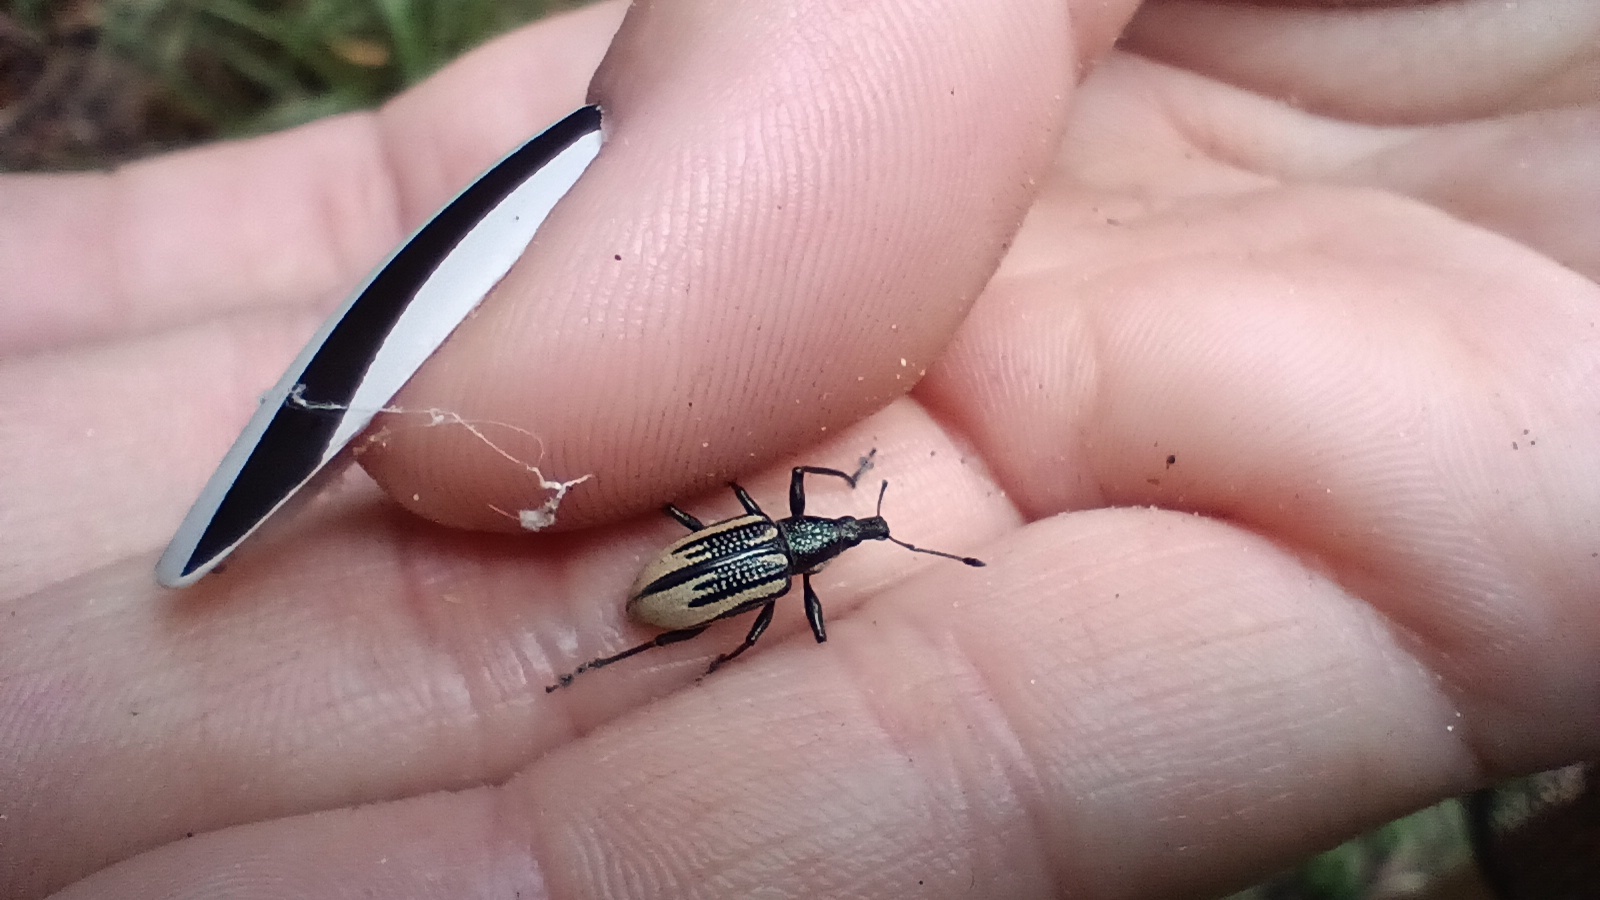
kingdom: Animalia
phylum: Arthropoda
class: Insecta
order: Coleoptera
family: Curculionidae
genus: Diaprepes
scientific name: Diaprepes abbreviatus
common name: Root weevil
